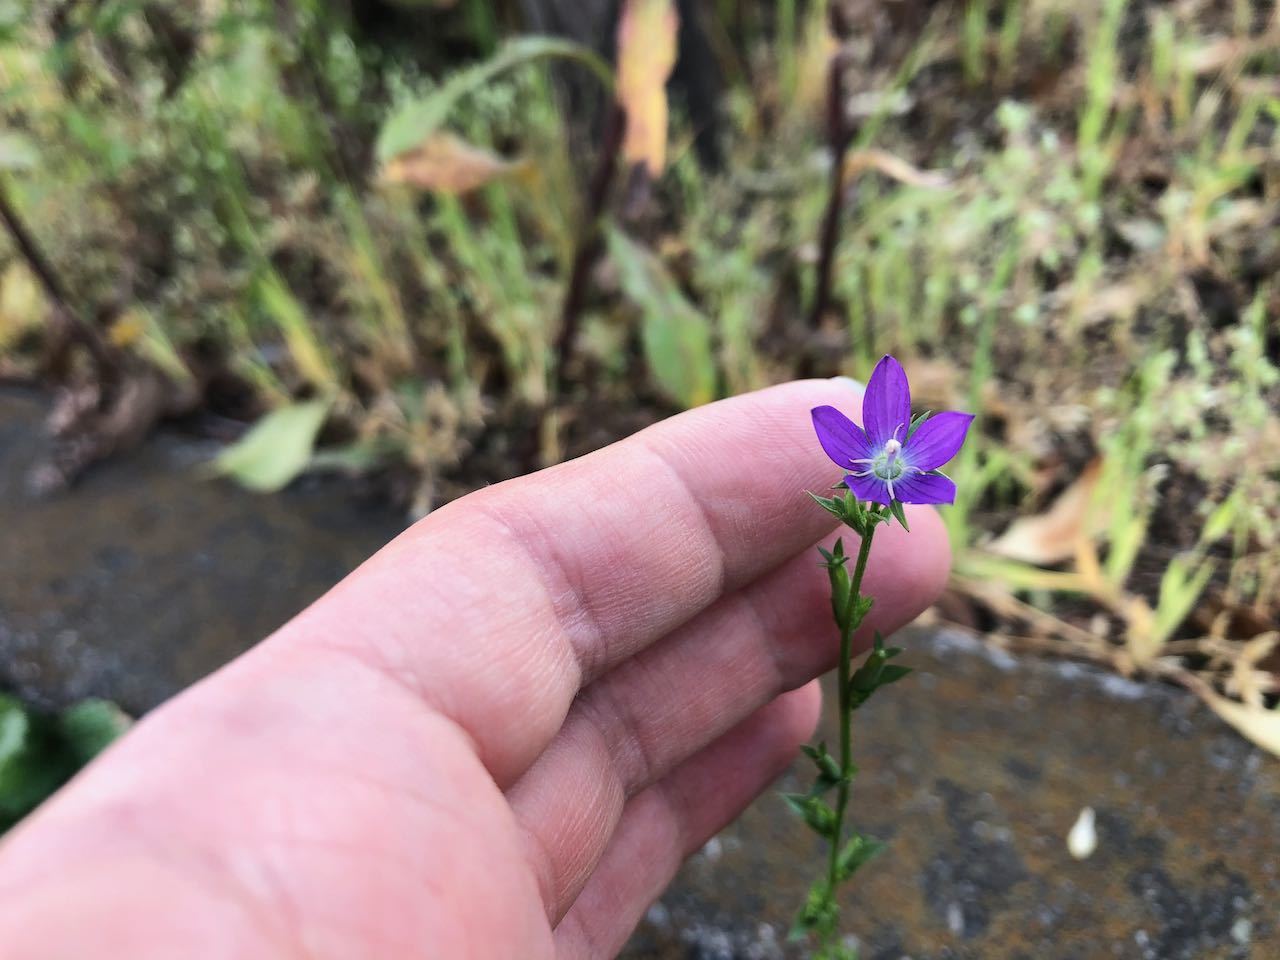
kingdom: Plantae
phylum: Tracheophyta
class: Magnoliopsida
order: Asterales
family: Campanulaceae
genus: Triodanis
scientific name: Triodanis biflora
